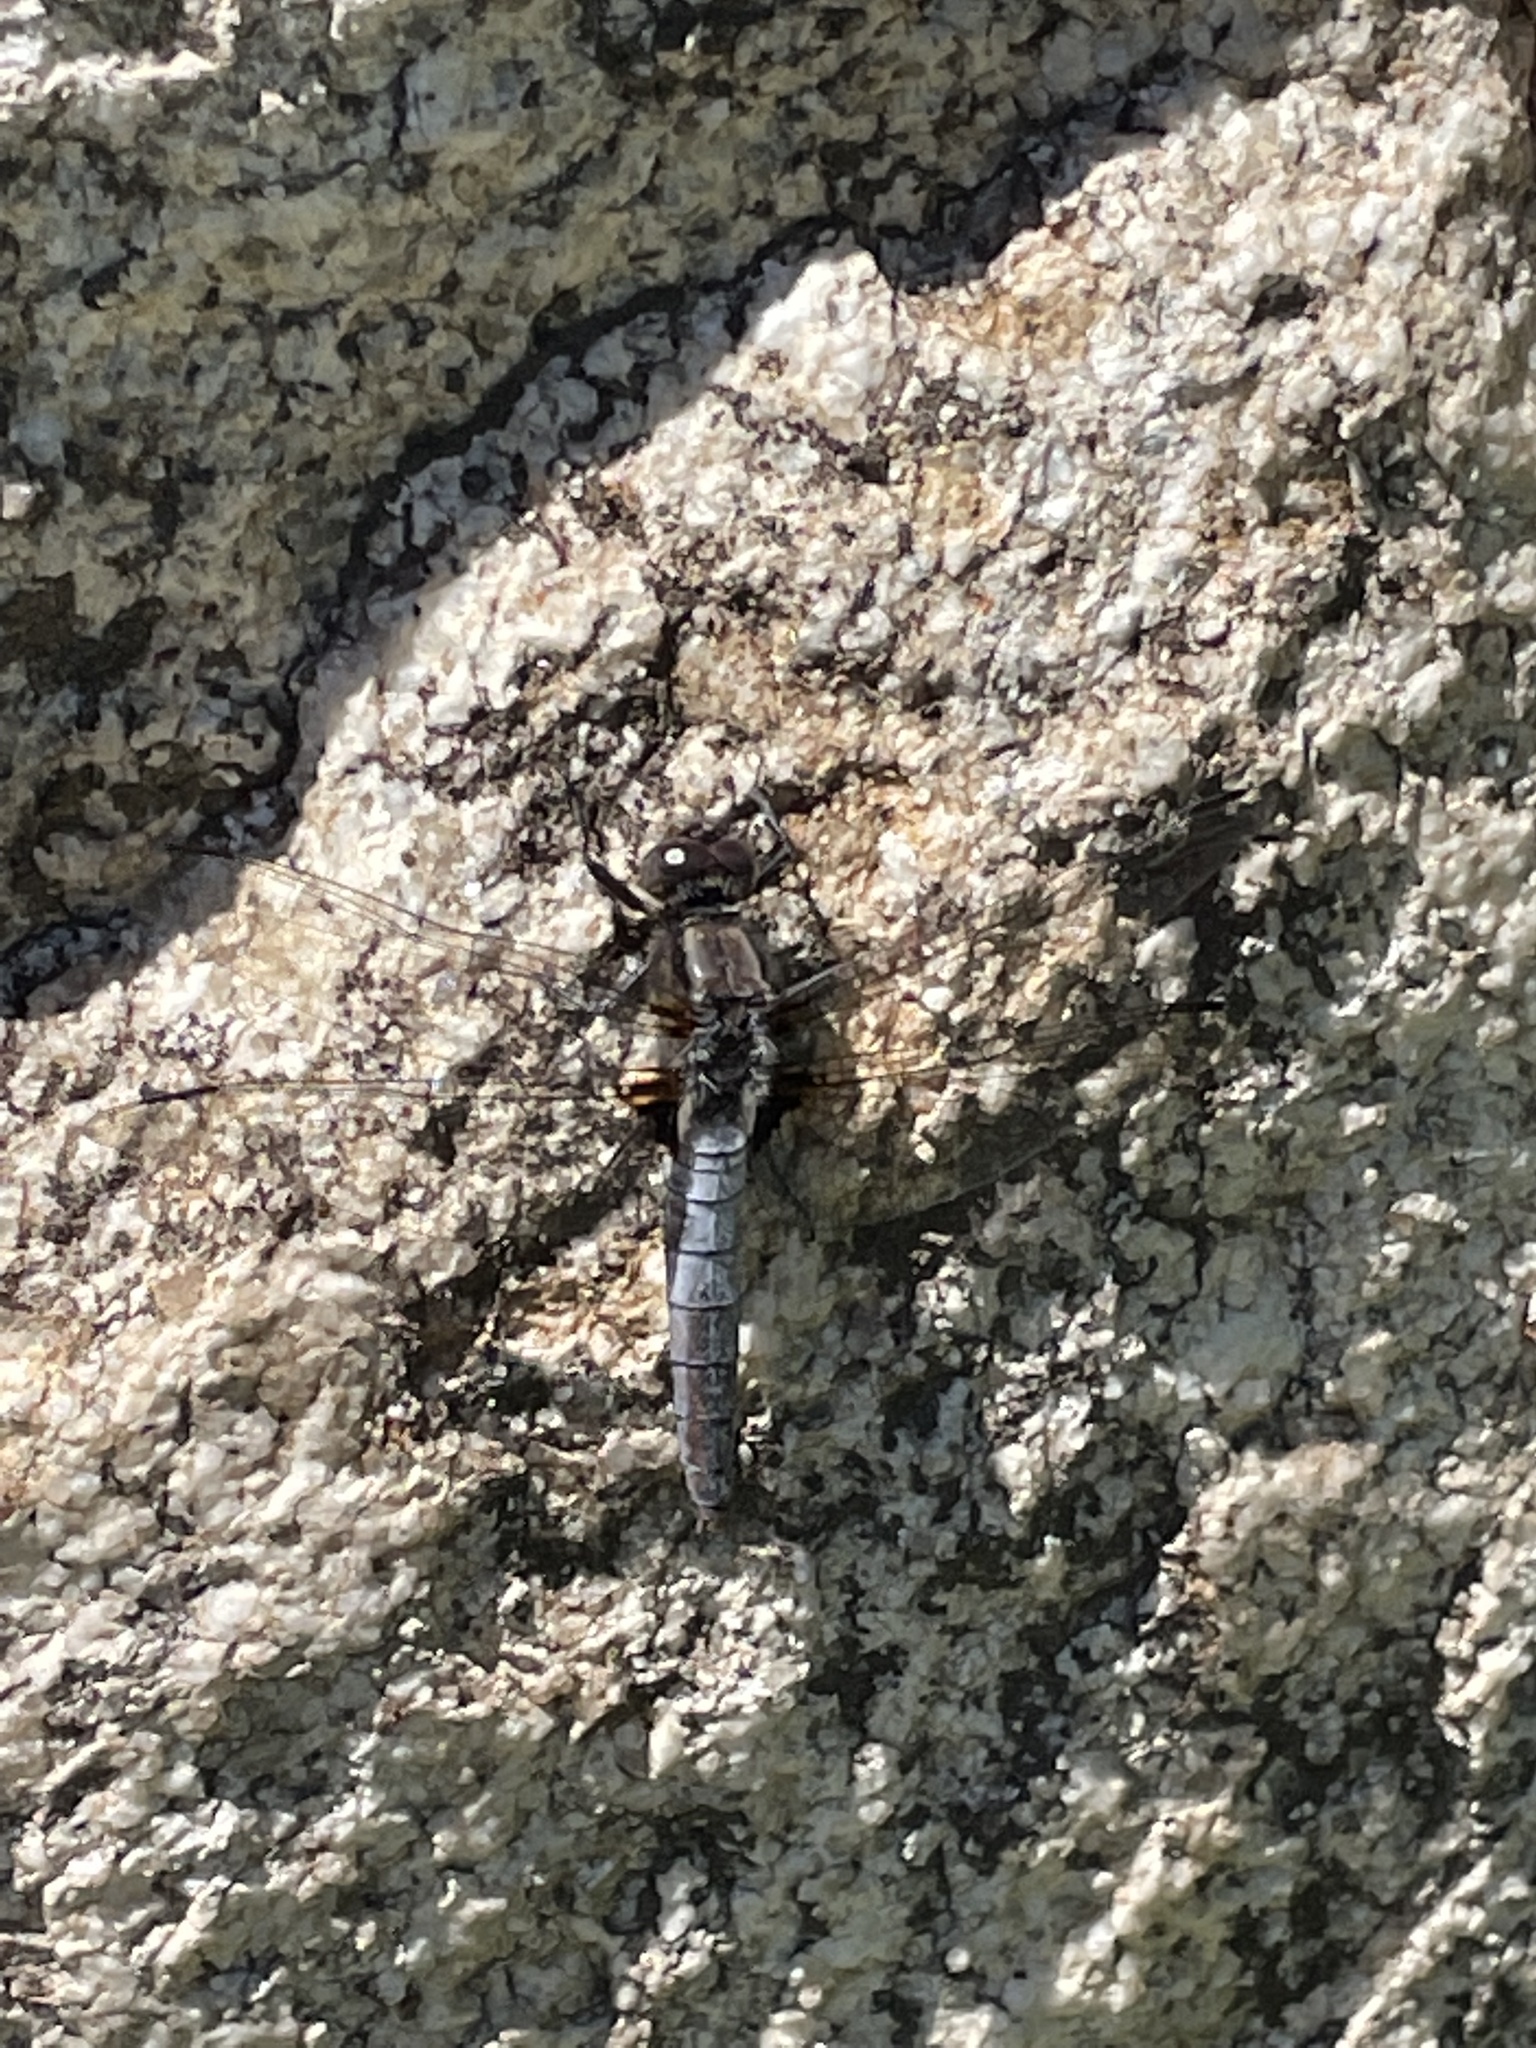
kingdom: Animalia
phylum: Arthropoda
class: Insecta
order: Odonata
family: Libellulidae
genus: Ladona
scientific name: Ladona julia
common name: Chalk-fronted corporal
